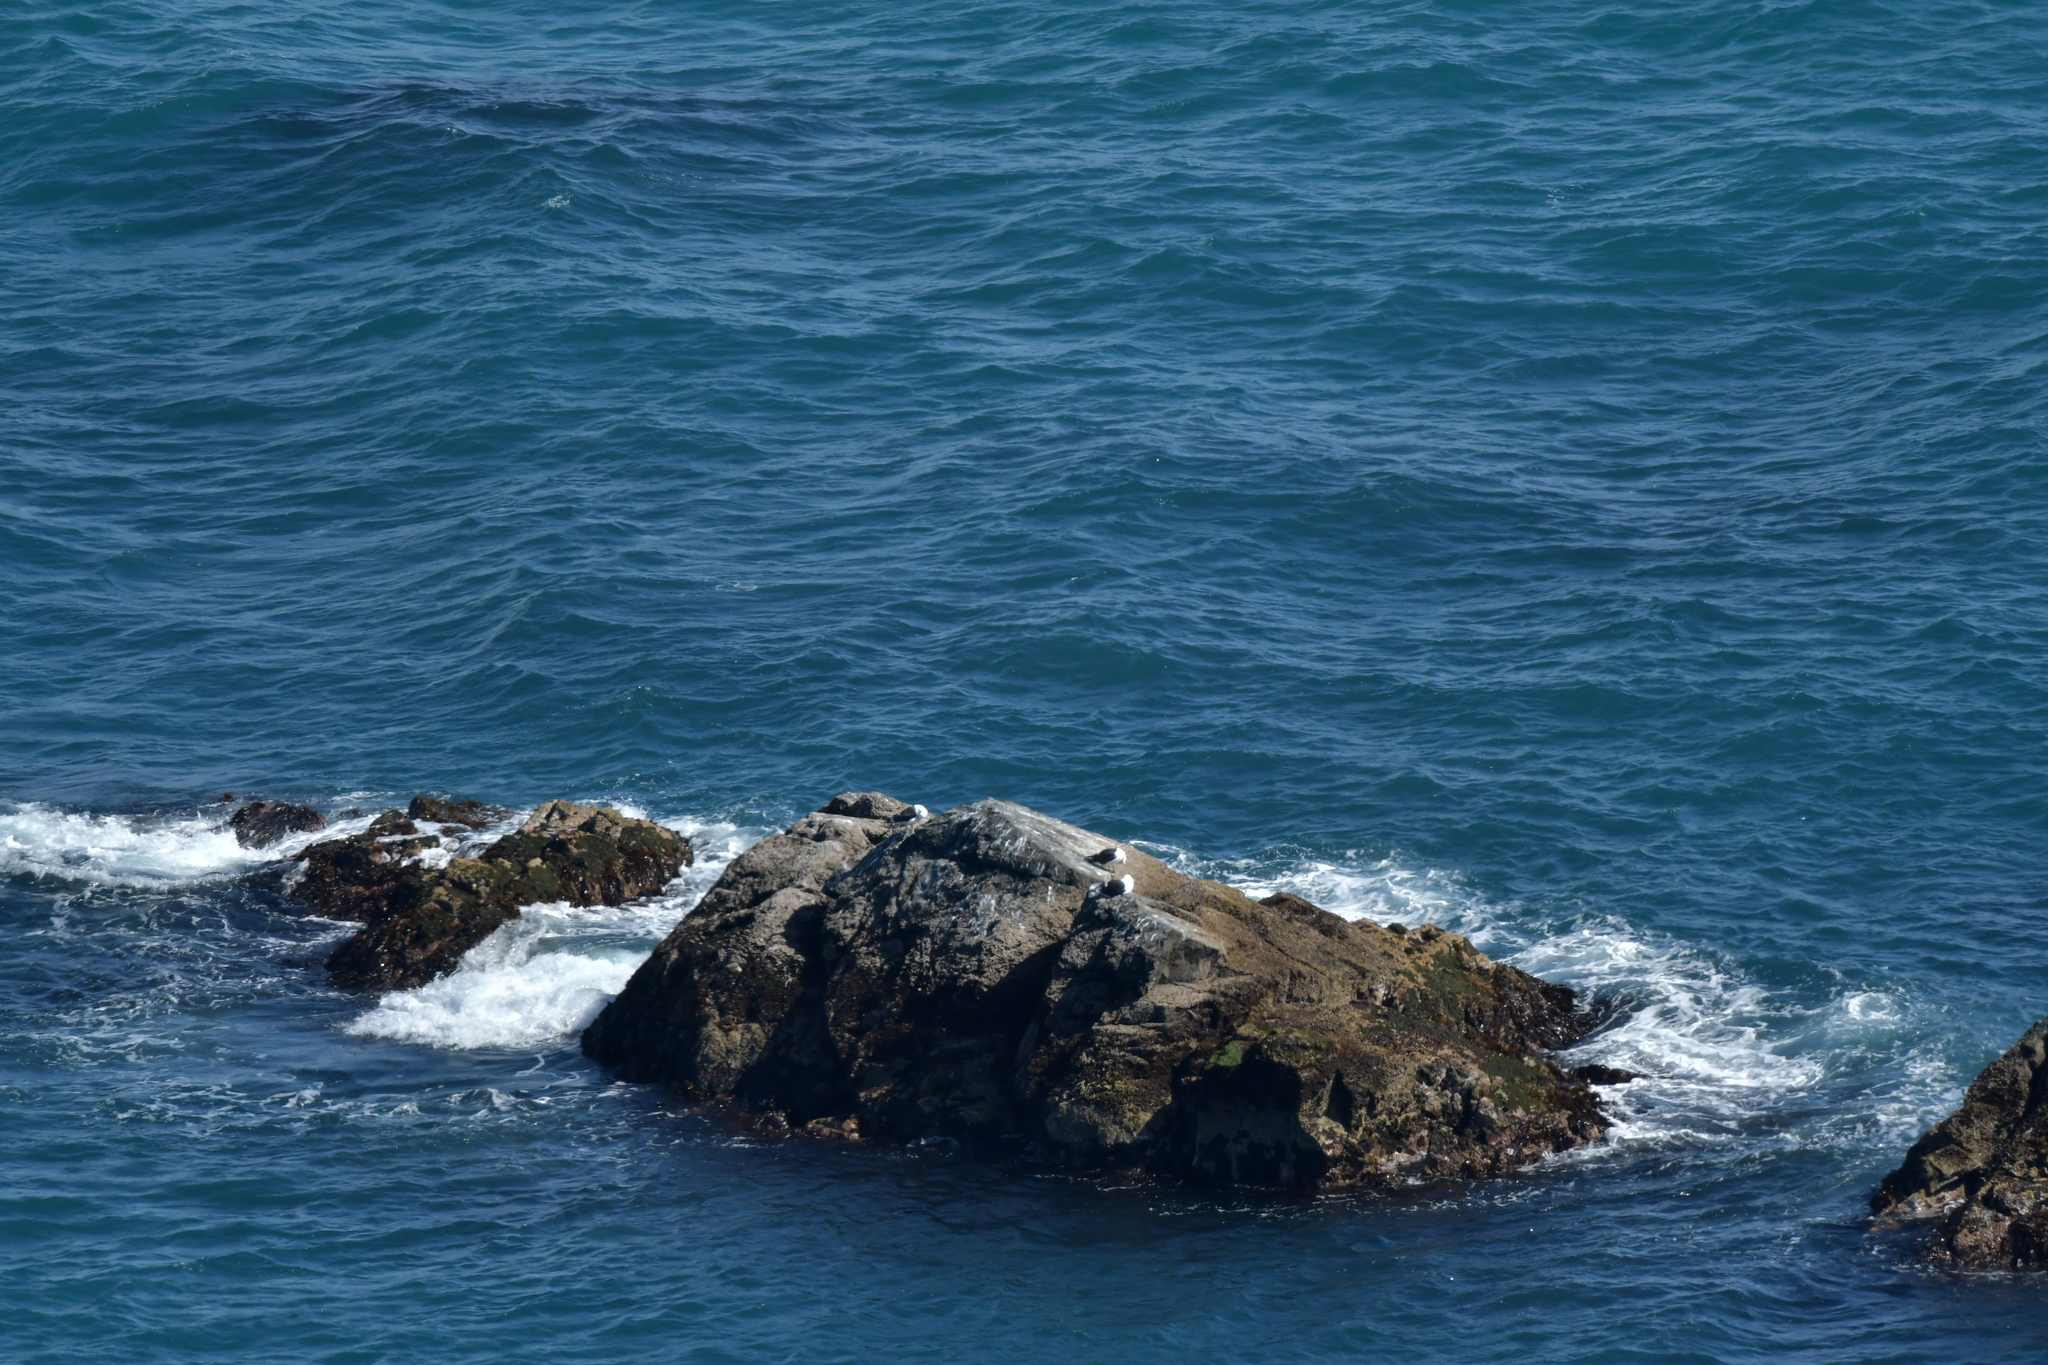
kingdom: Animalia
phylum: Chordata
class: Aves
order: Charadriiformes
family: Laridae
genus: Larus
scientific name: Larus dominicanus
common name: Kelp gull
